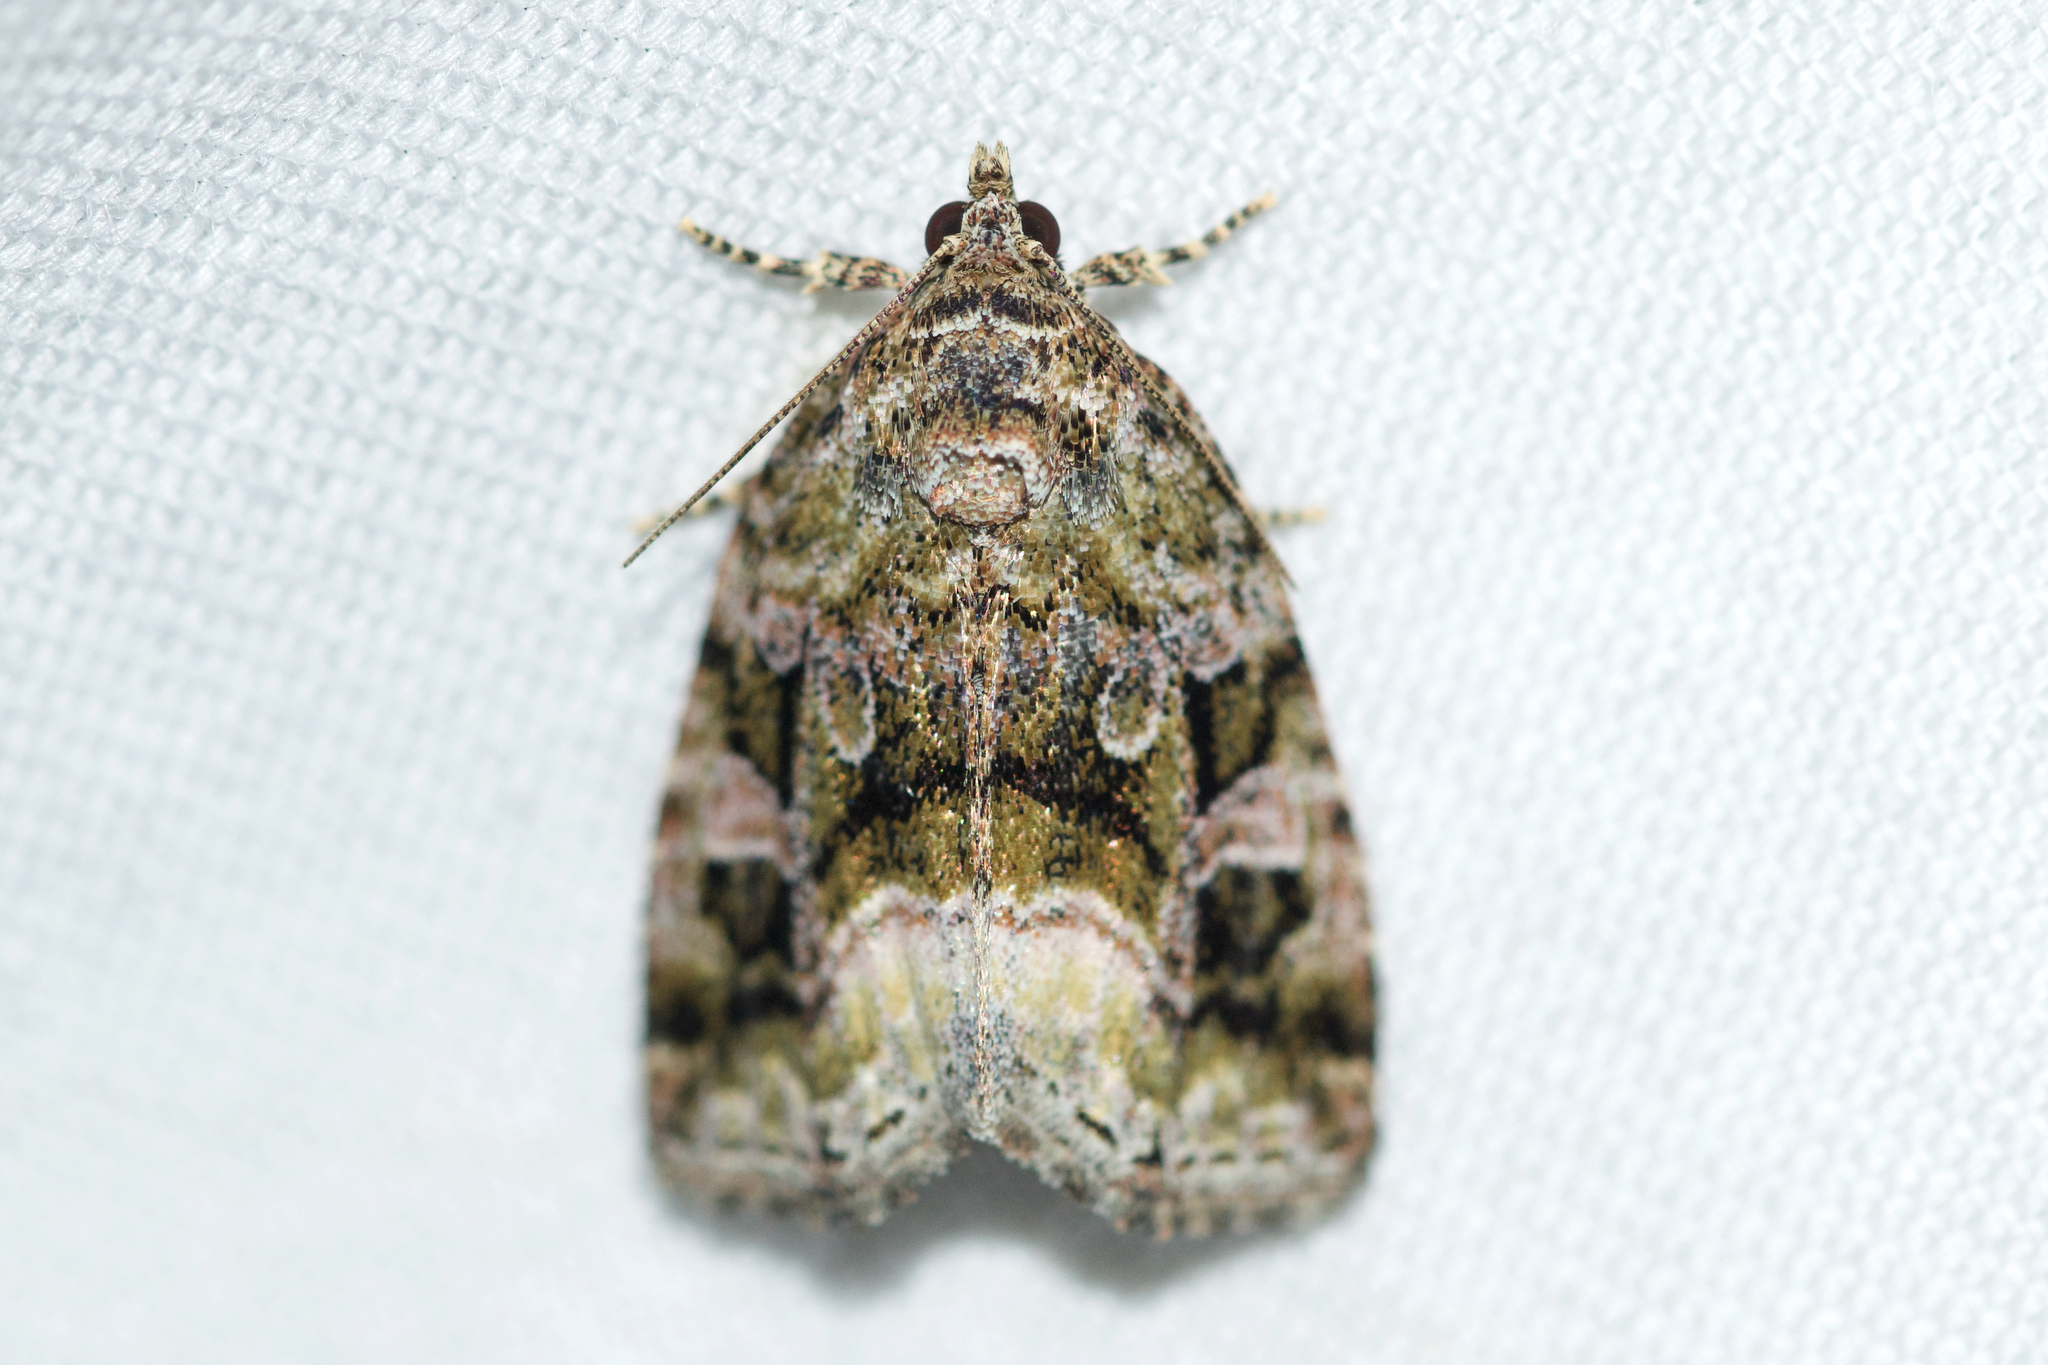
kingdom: Animalia
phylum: Arthropoda
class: Insecta
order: Lepidoptera
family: Noctuidae
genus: Protodeltote
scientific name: Protodeltote muscosula
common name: Large mossy glyph
